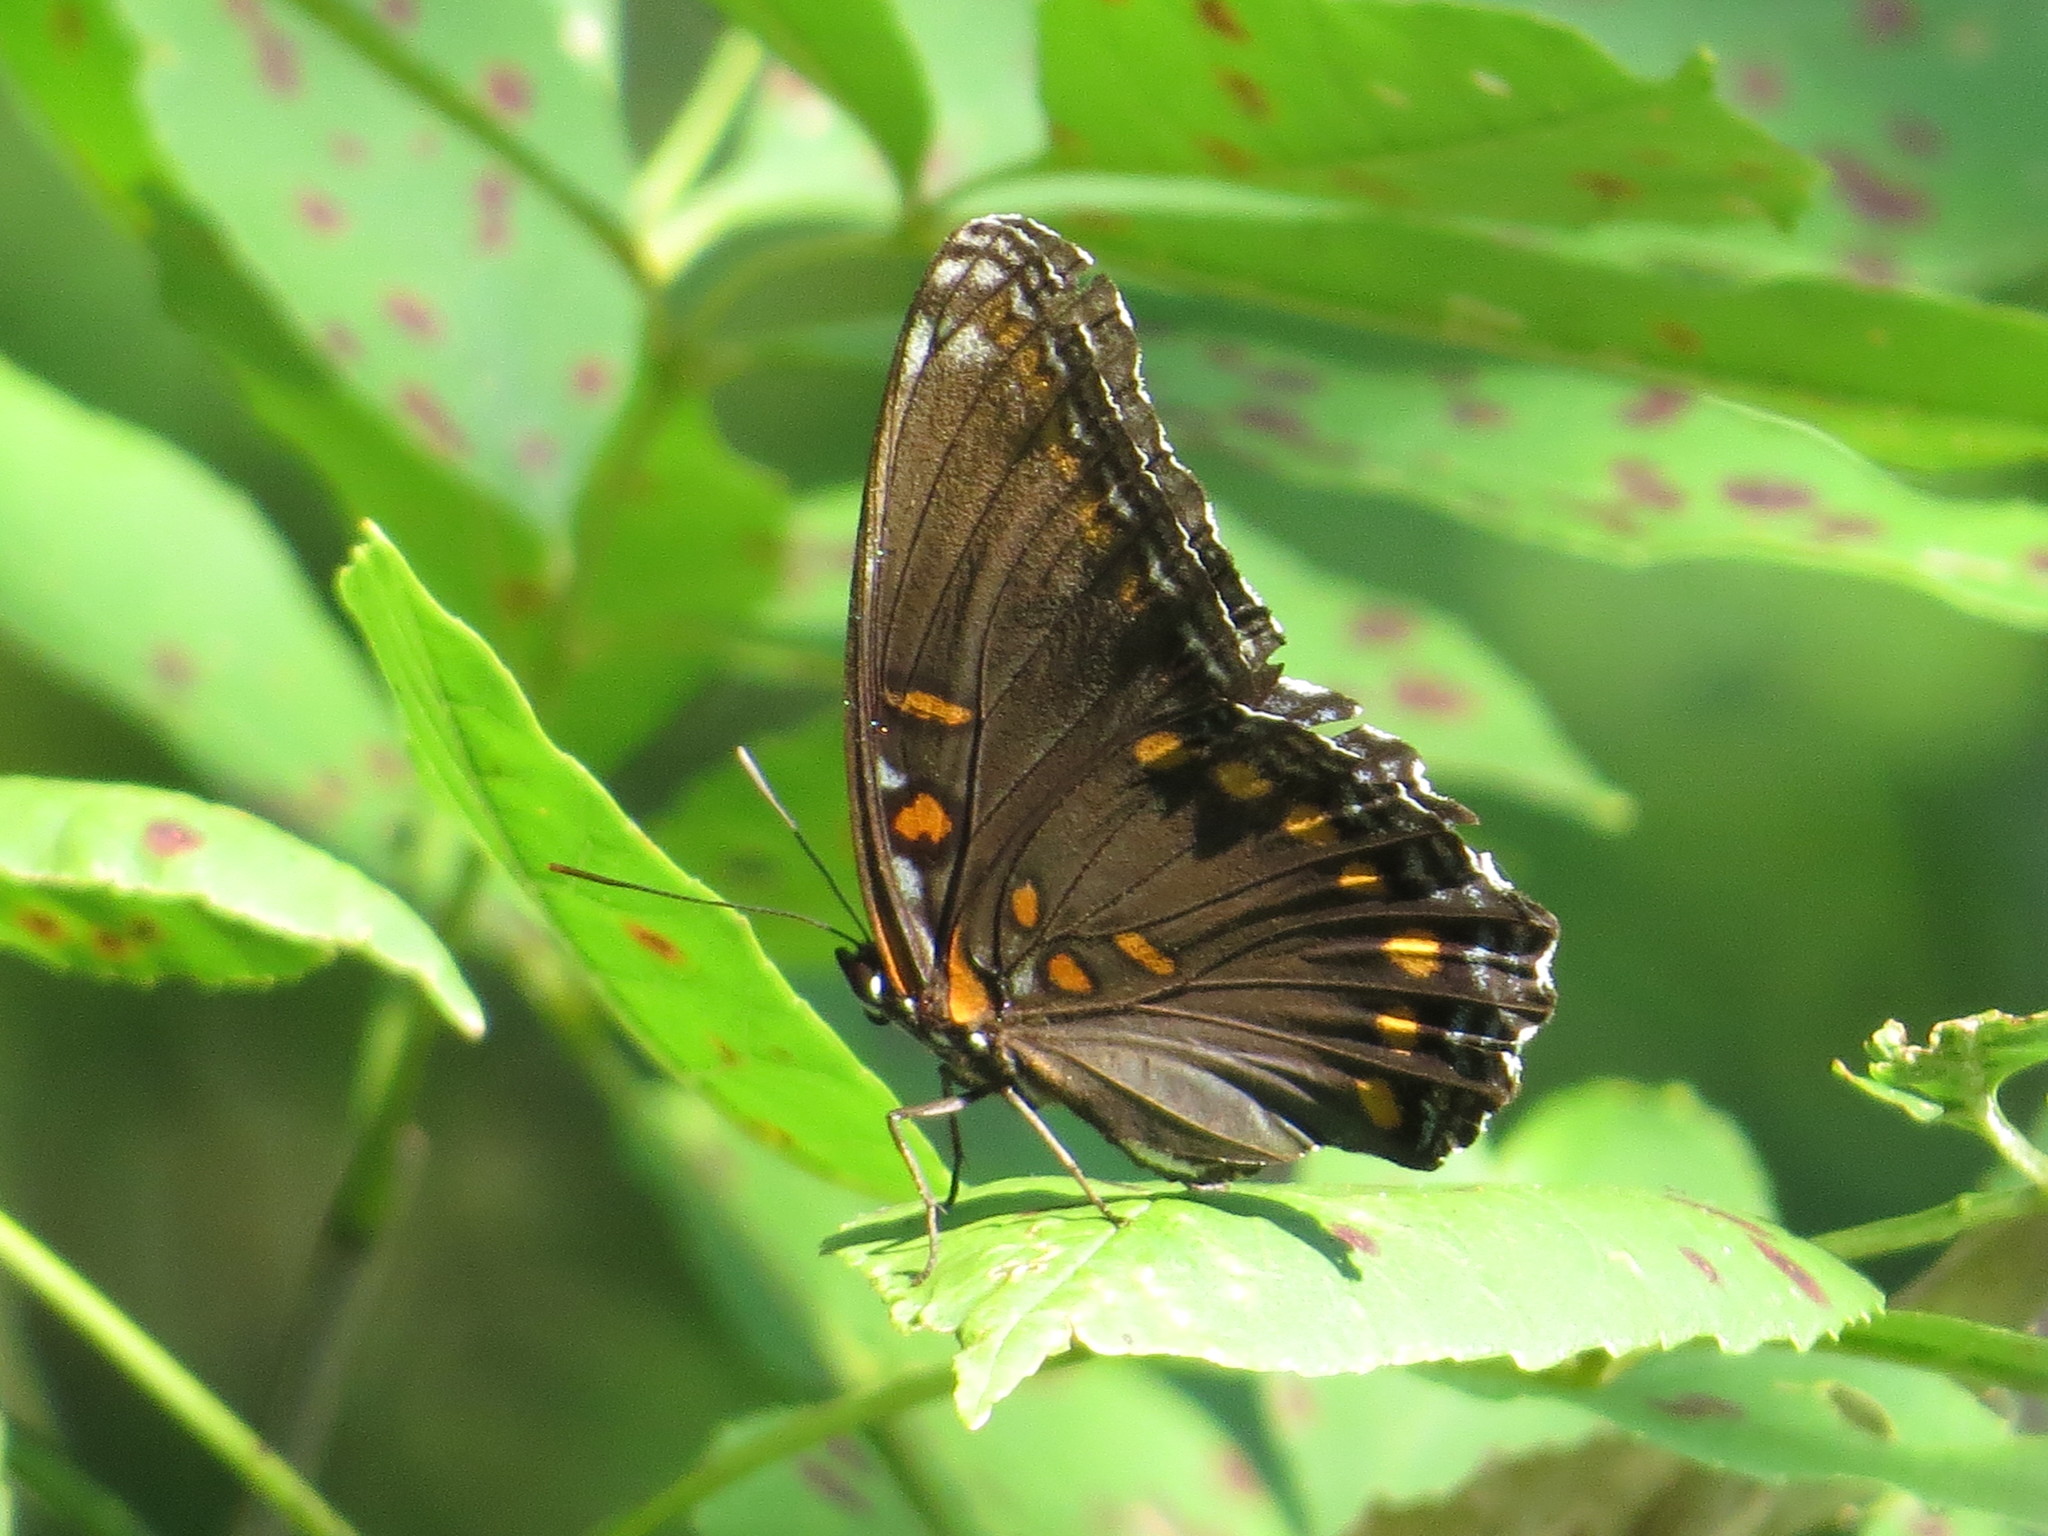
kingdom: Animalia
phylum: Arthropoda
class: Insecta
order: Lepidoptera
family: Nymphalidae
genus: Limenitis
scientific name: Limenitis arthemis
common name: Red-spotted admiral
